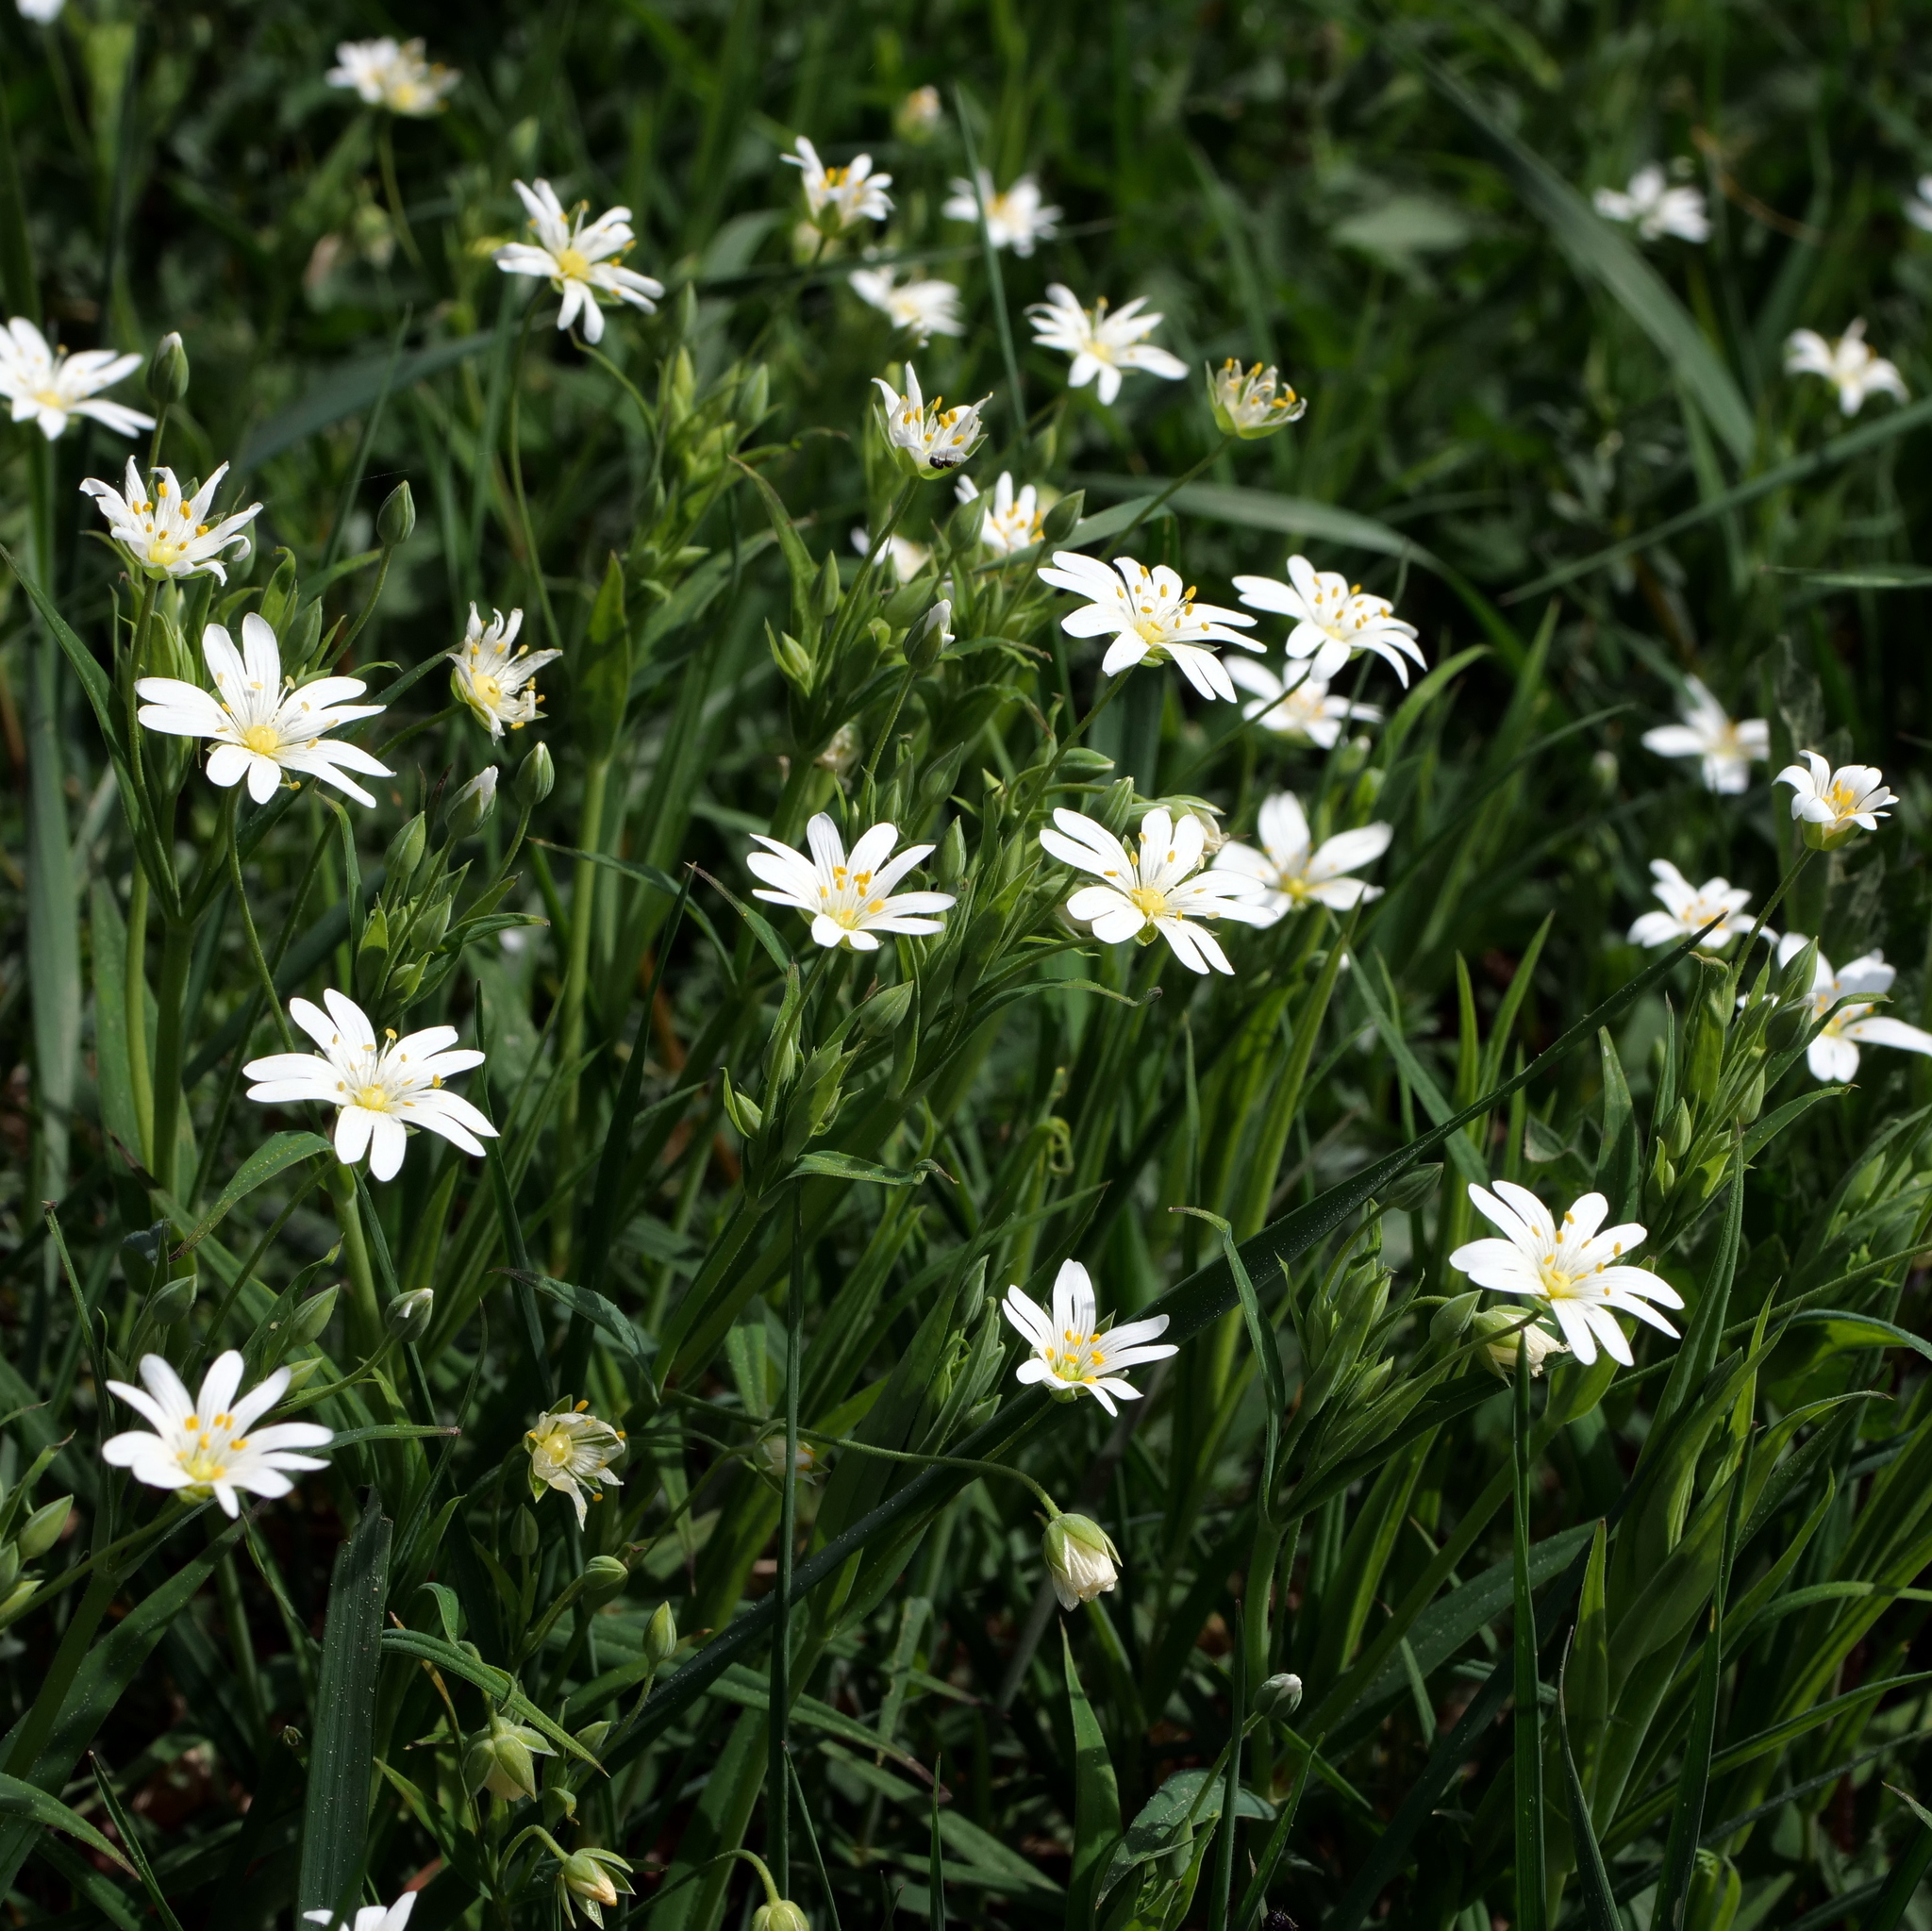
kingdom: Plantae
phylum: Tracheophyta
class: Magnoliopsida
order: Caryophyllales
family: Caryophyllaceae
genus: Rabelera
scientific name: Rabelera holostea
